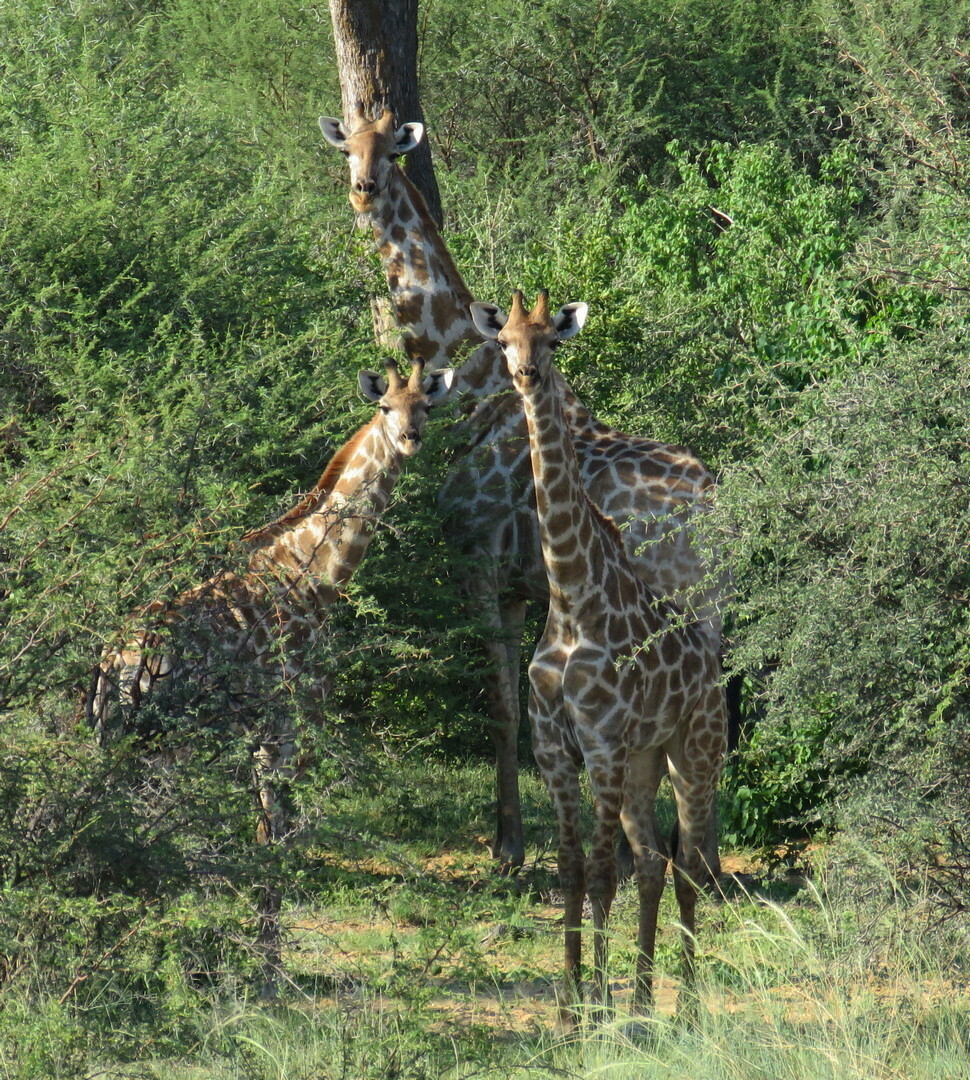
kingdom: Animalia
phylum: Chordata
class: Mammalia
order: Artiodactyla
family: Giraffidae
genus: Giraffa
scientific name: Giraffa giraffa
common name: Southern giraffe
